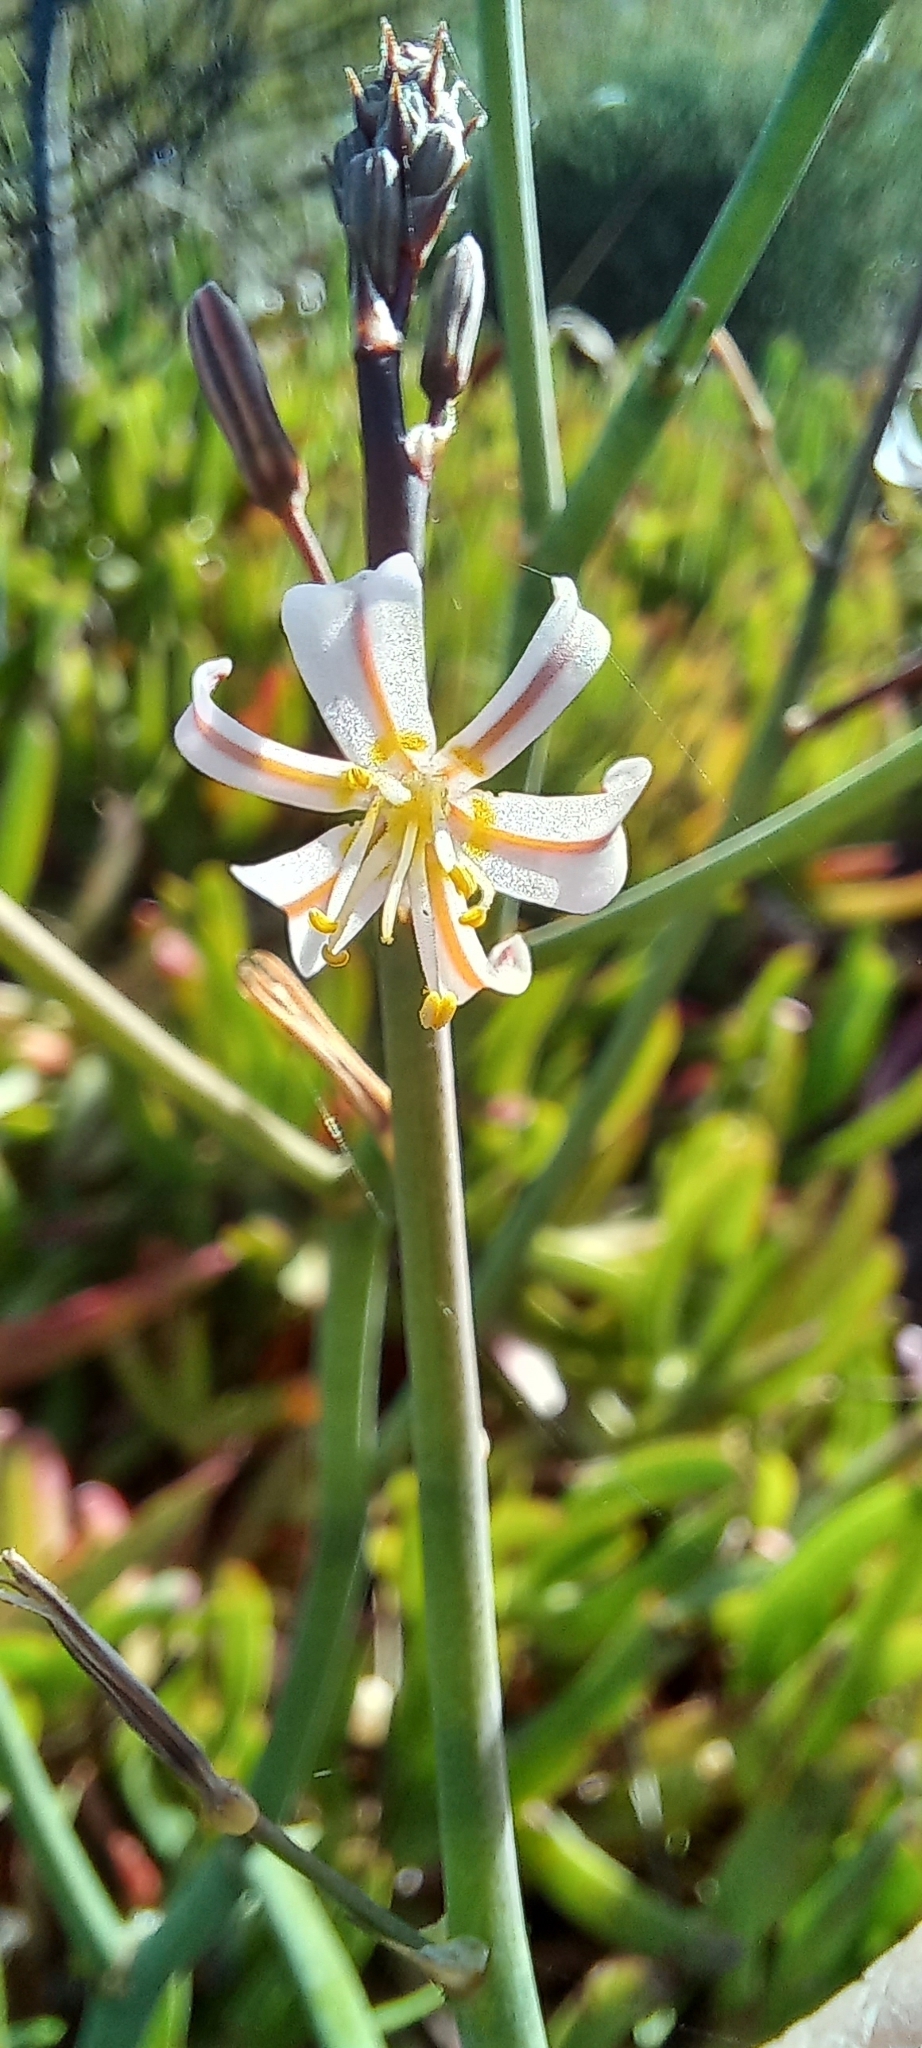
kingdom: Plantae
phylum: Tracheophyta
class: Liliopsida
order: Asparagales
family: Asphodelaceae
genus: Trachyandra
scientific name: Trachyandra revoluta
